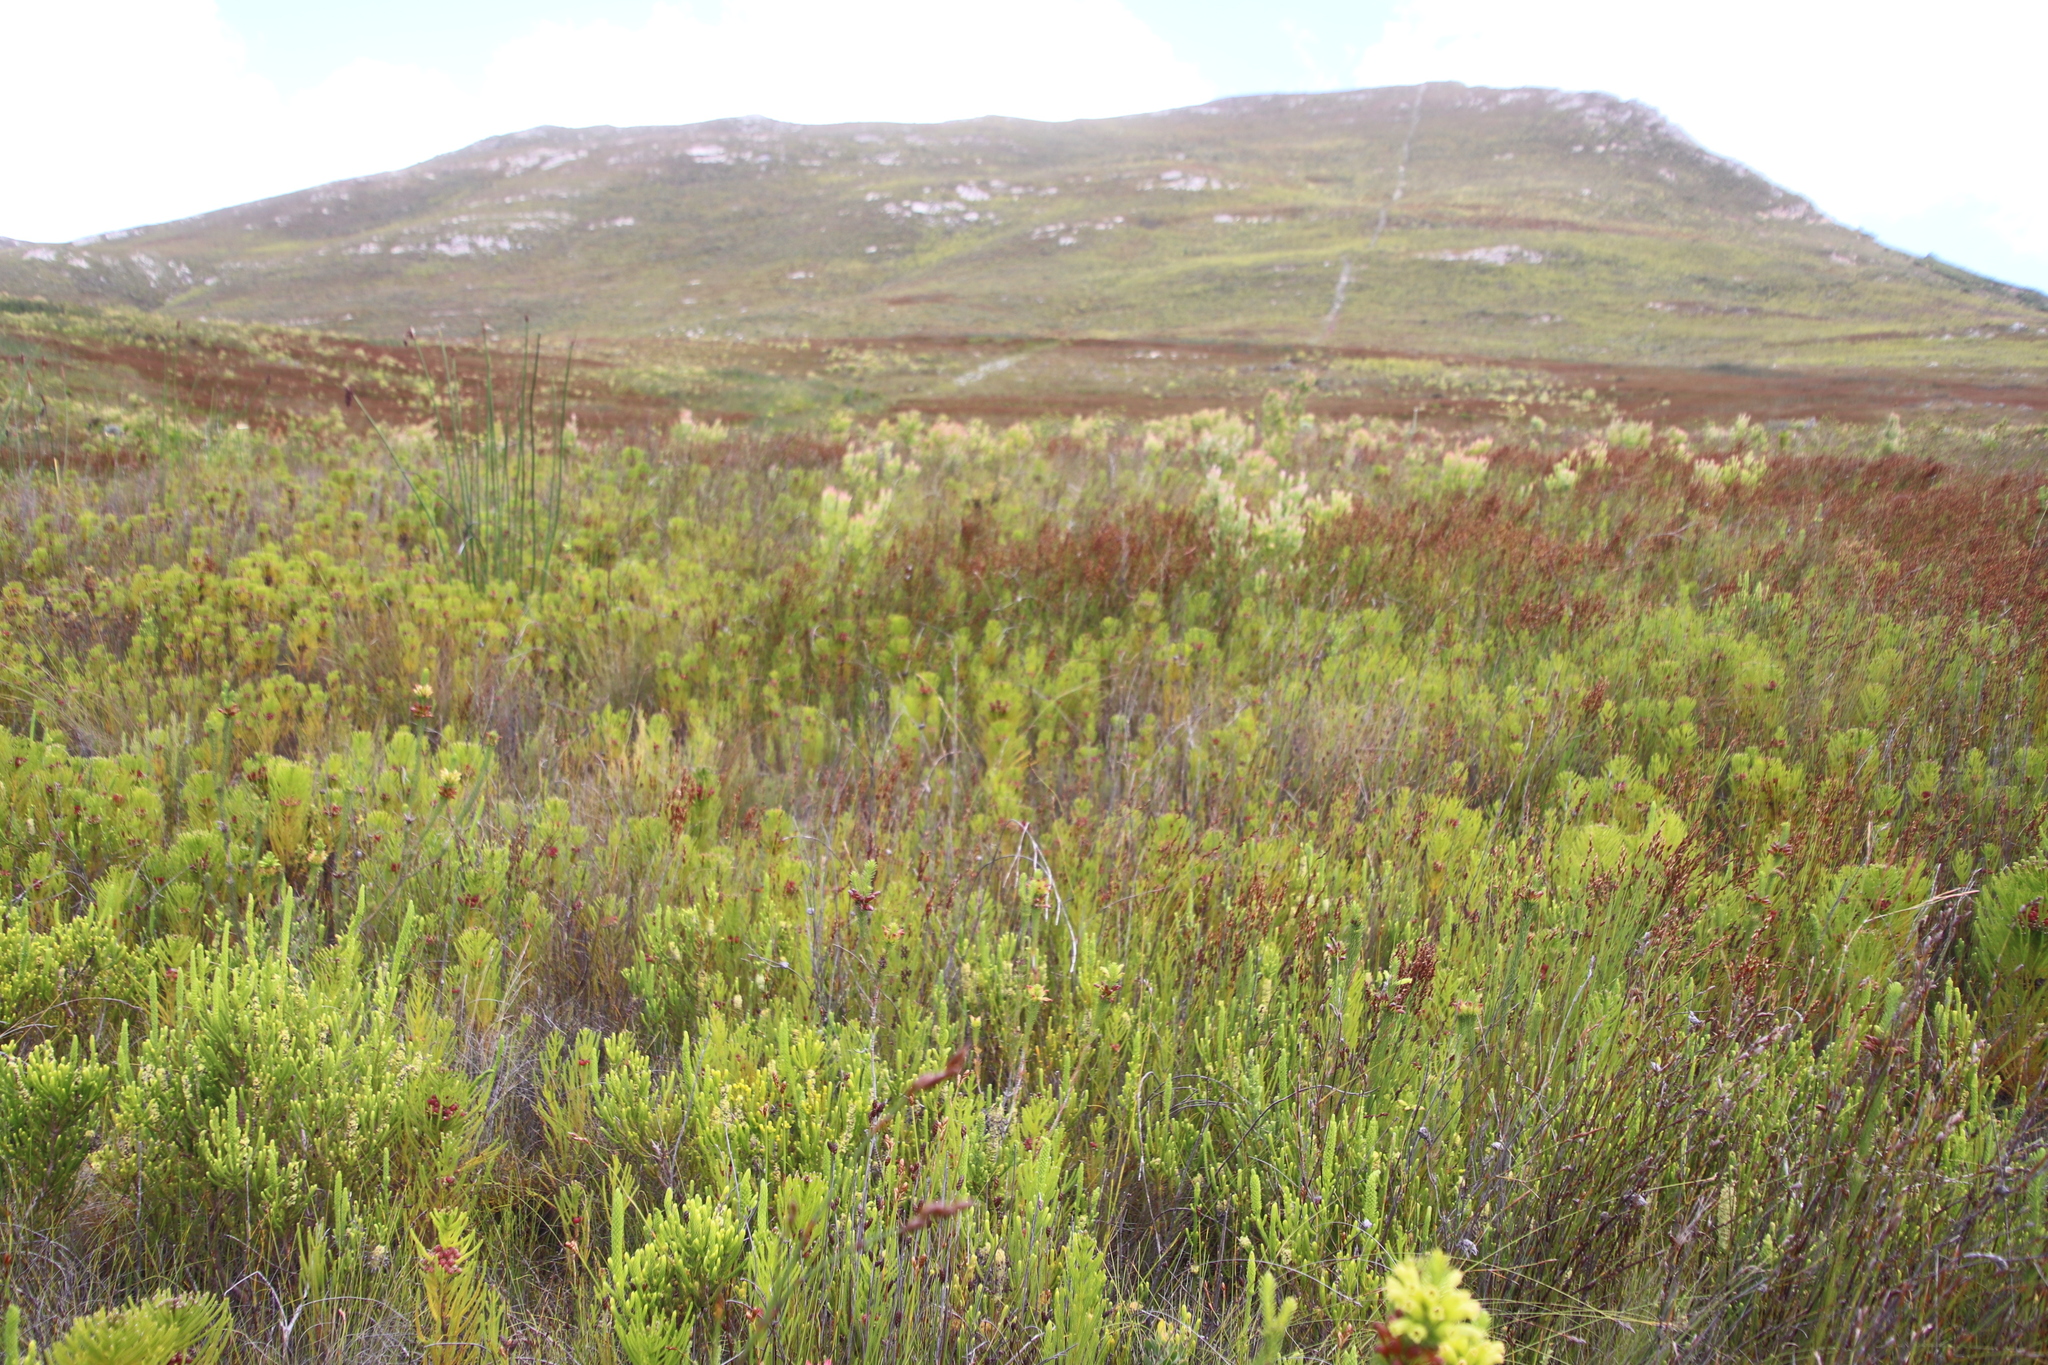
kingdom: Plantae
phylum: Tracheophyta
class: Magnoliopsida
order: Bruniales
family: Bruniaceae
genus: Berzelia
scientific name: Berzelia alopecurioides
